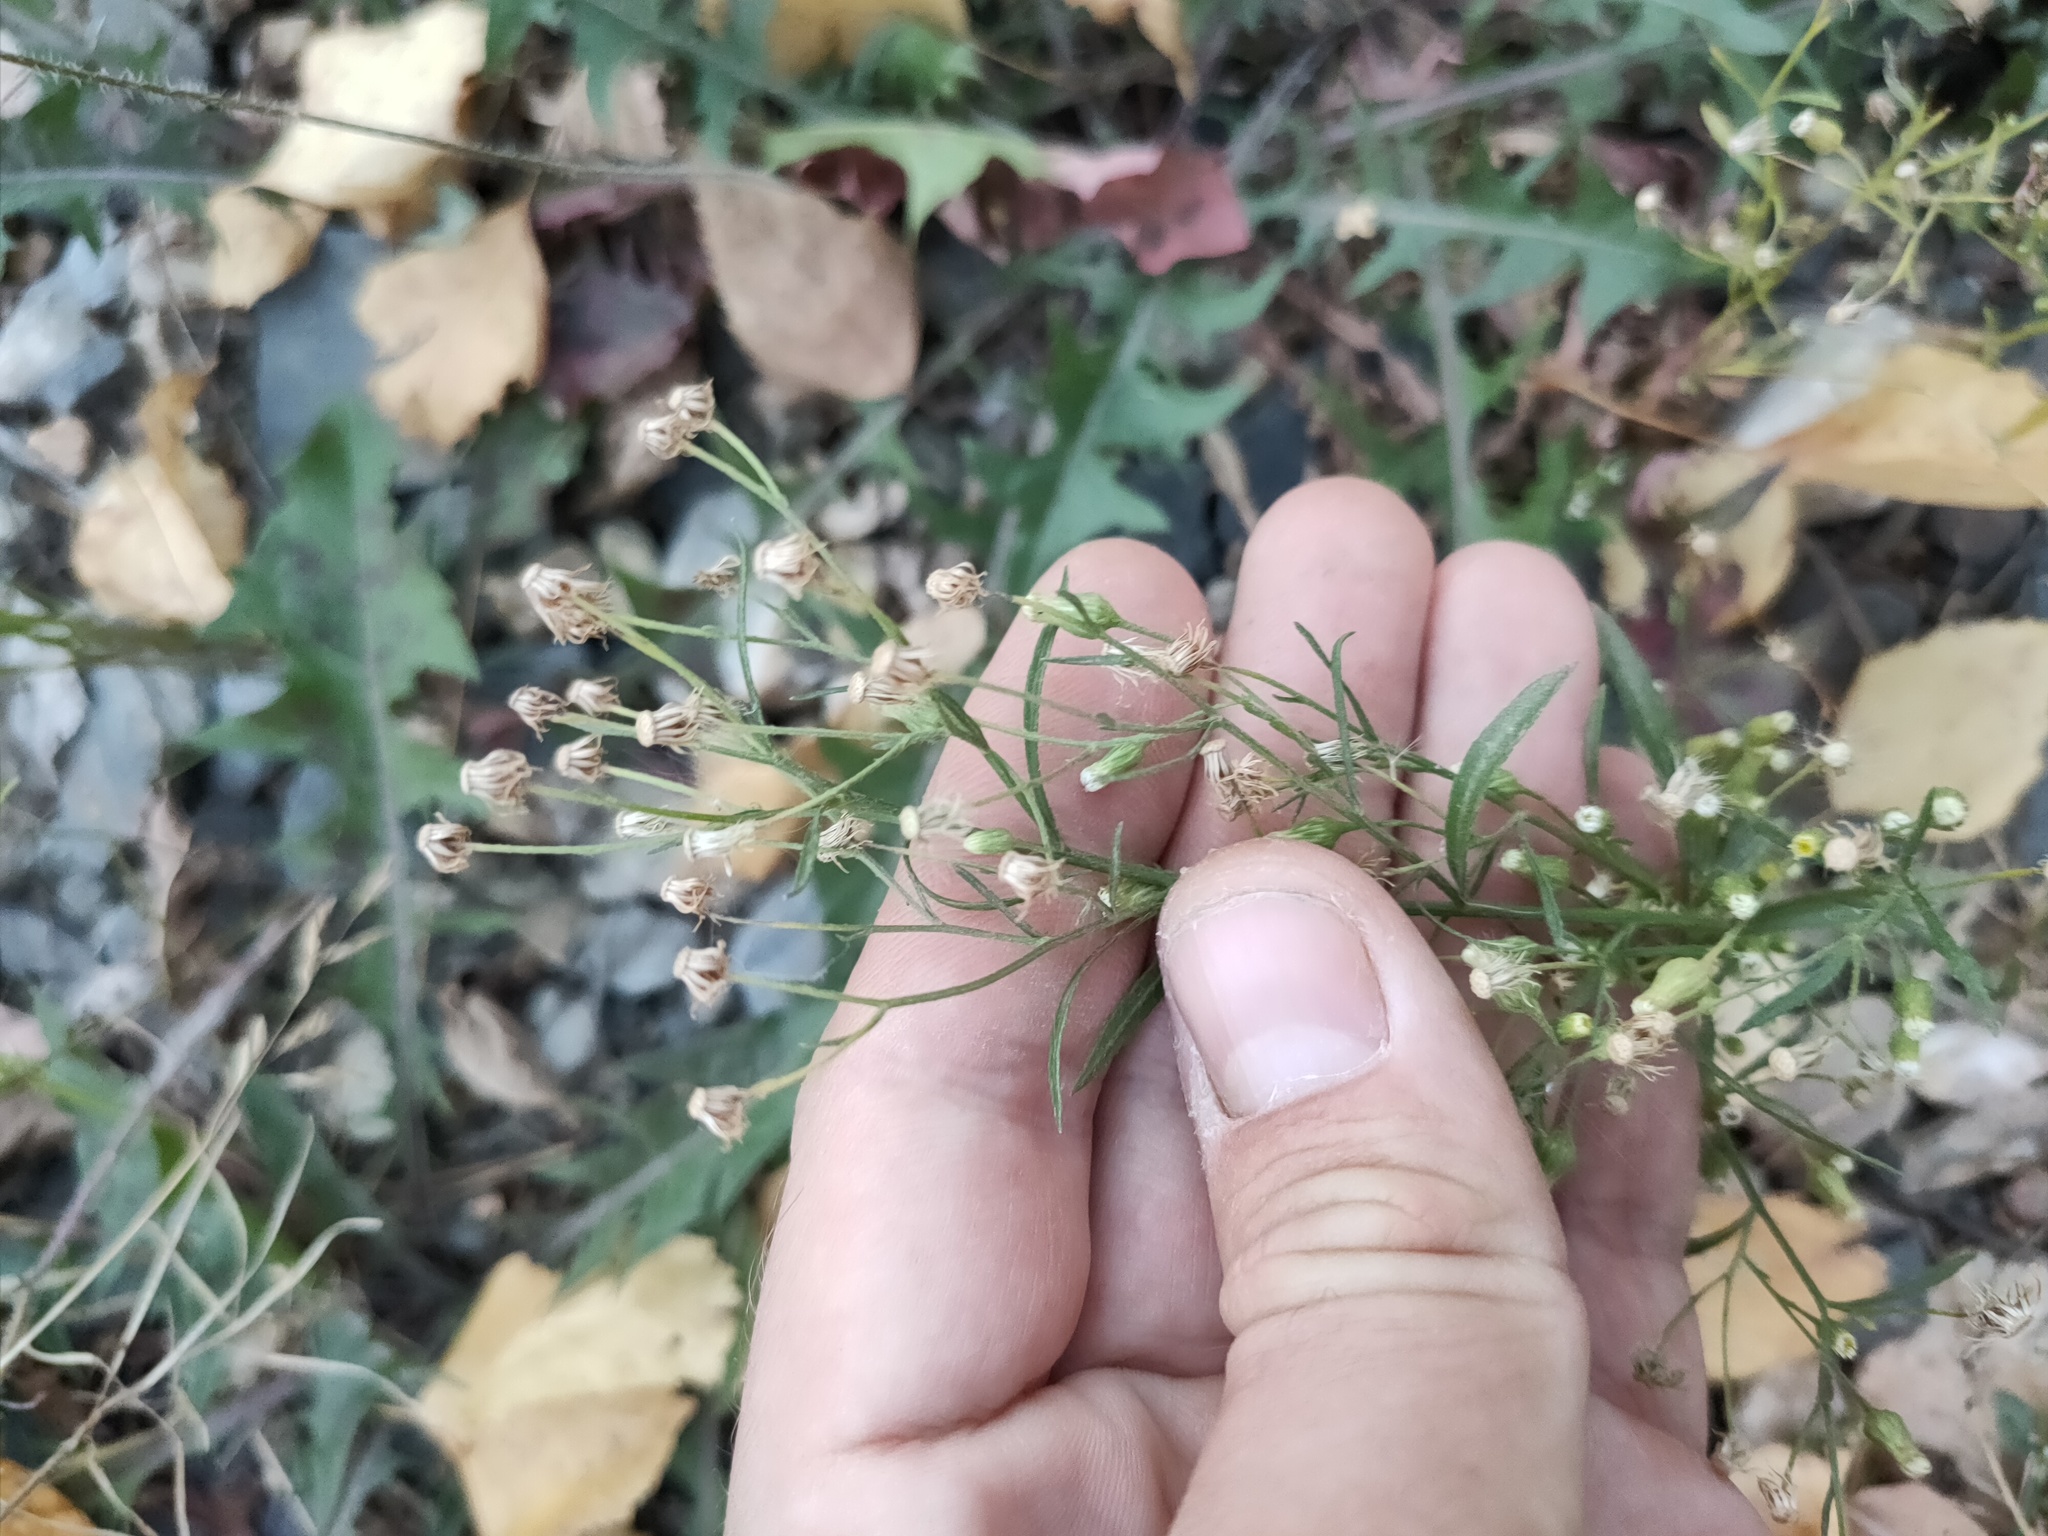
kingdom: Plantae
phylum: Tracheophyta
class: Magnoliopsida
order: Asterales
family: Asteraceae
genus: Erigeron
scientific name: Erigeron canadensis
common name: Canadian fleabane
